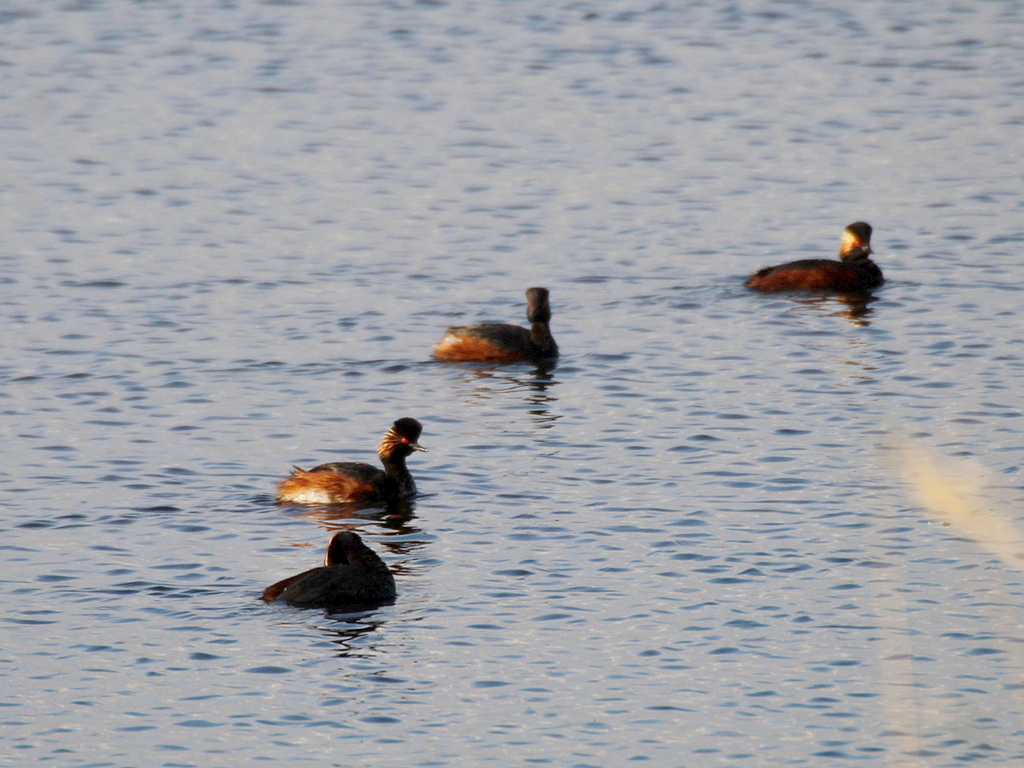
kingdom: Animalia
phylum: Chordata
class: Aves
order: Podicipediformes
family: Podicipedidae
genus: Podiceps
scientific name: Podiceps nigricollis
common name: Black-necked grebe
